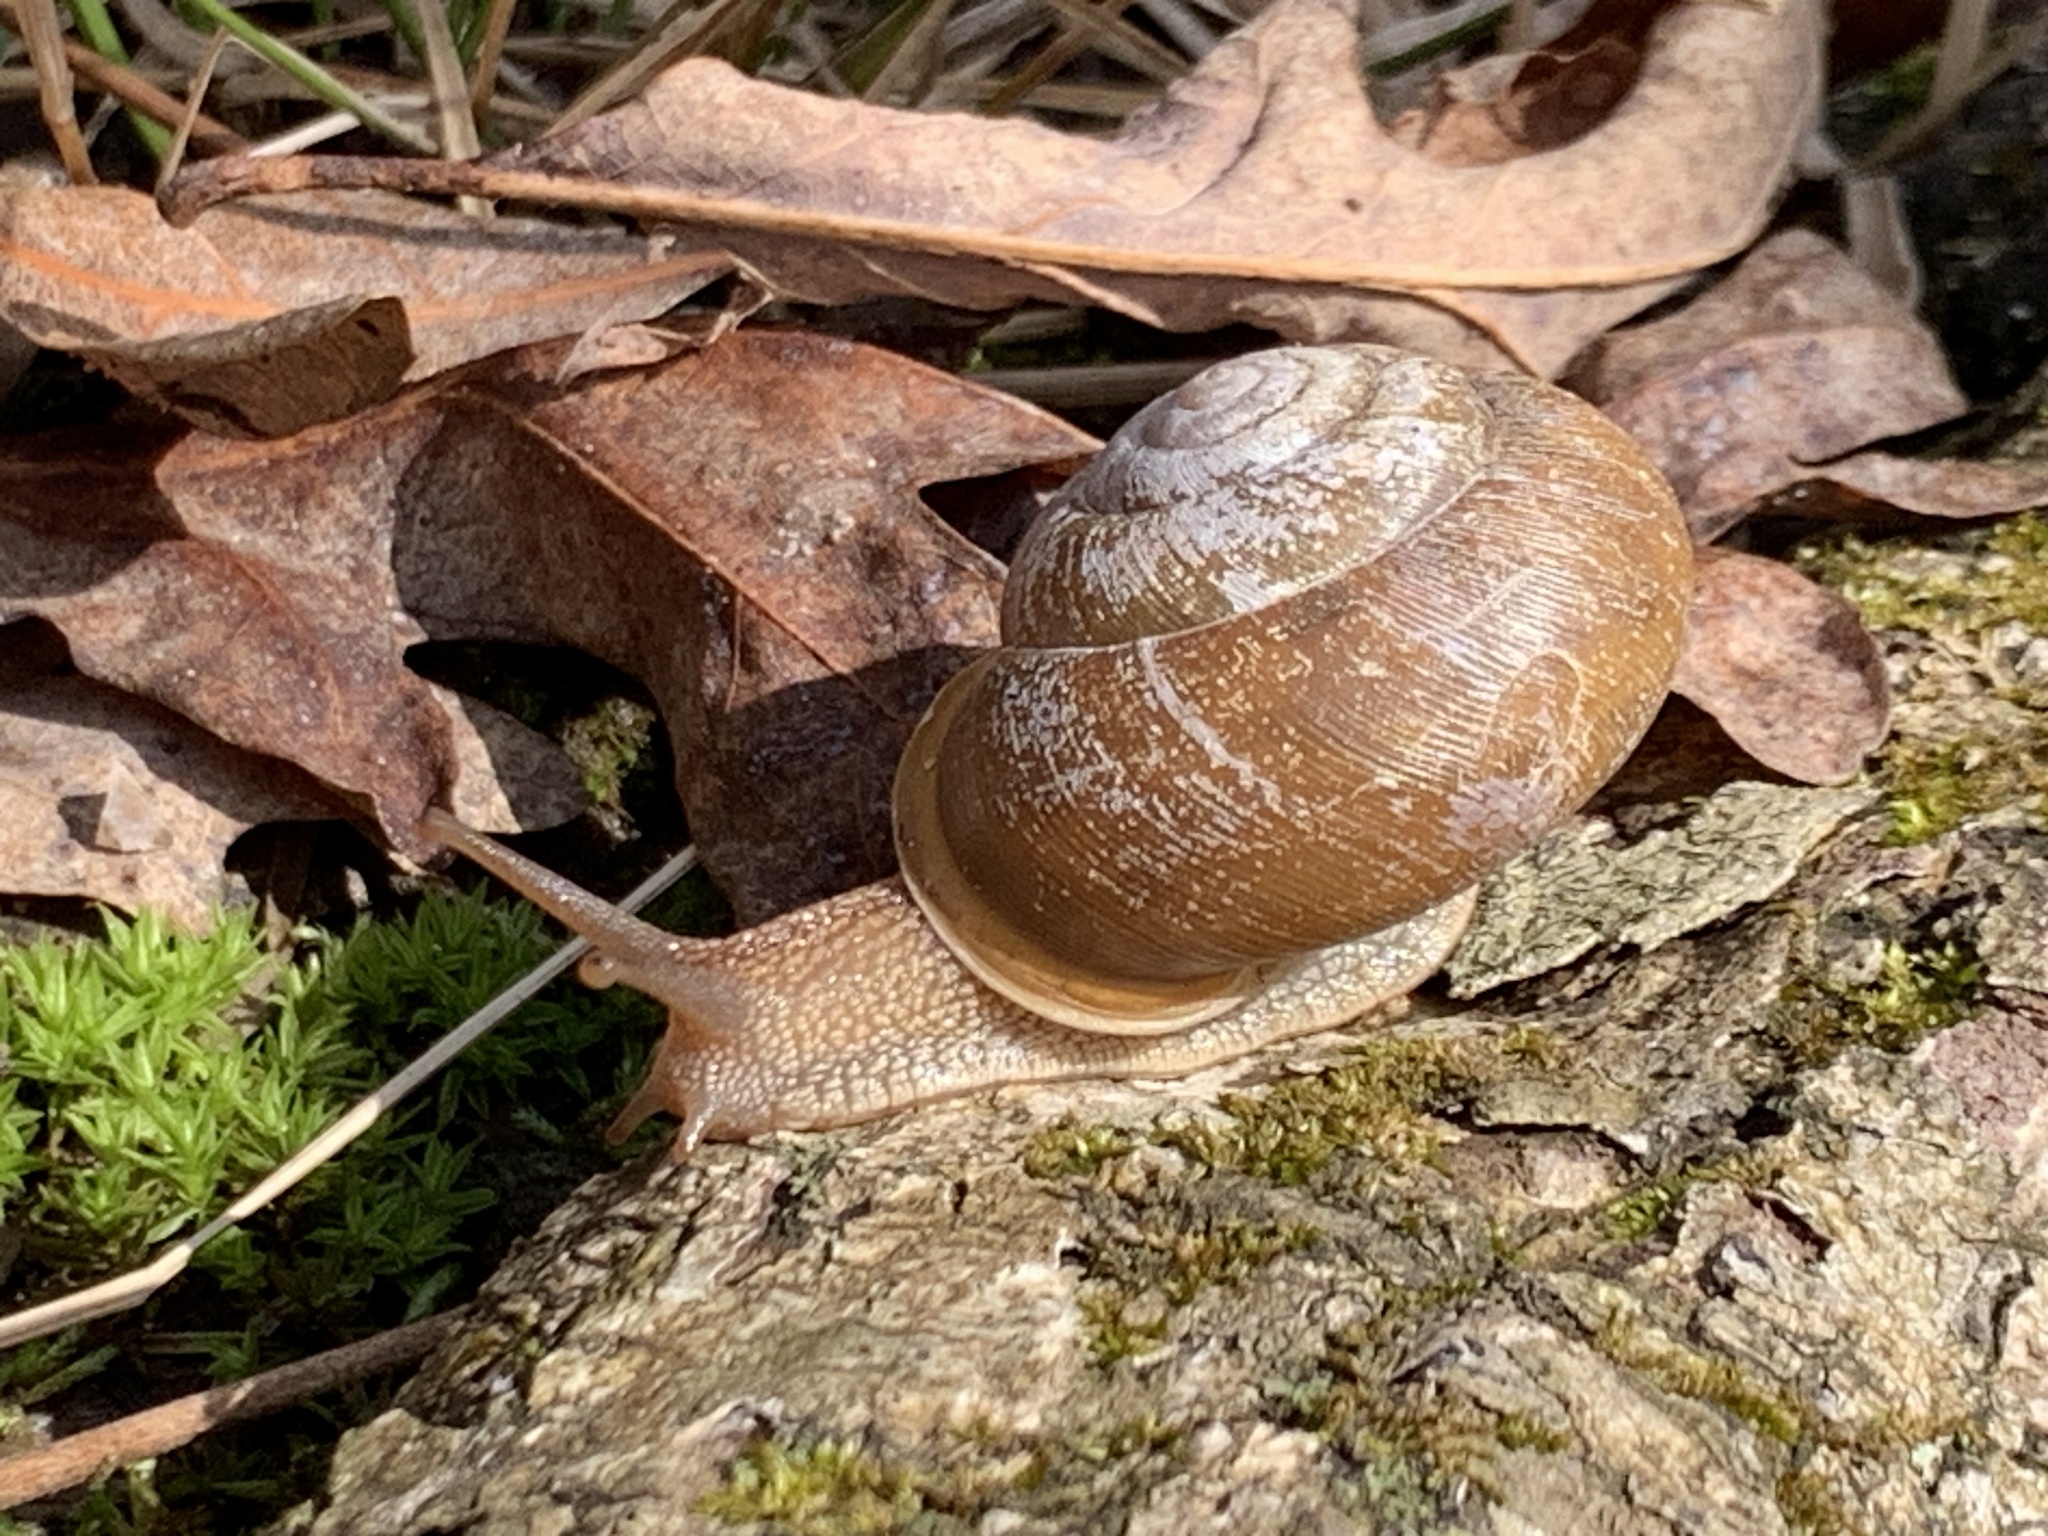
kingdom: Animalia
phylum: Mollusca
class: Gastropoda
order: Stylommatophora
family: Polygyridae
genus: Mesodon
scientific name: Mesodon thyroidus
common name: White-lip globe
